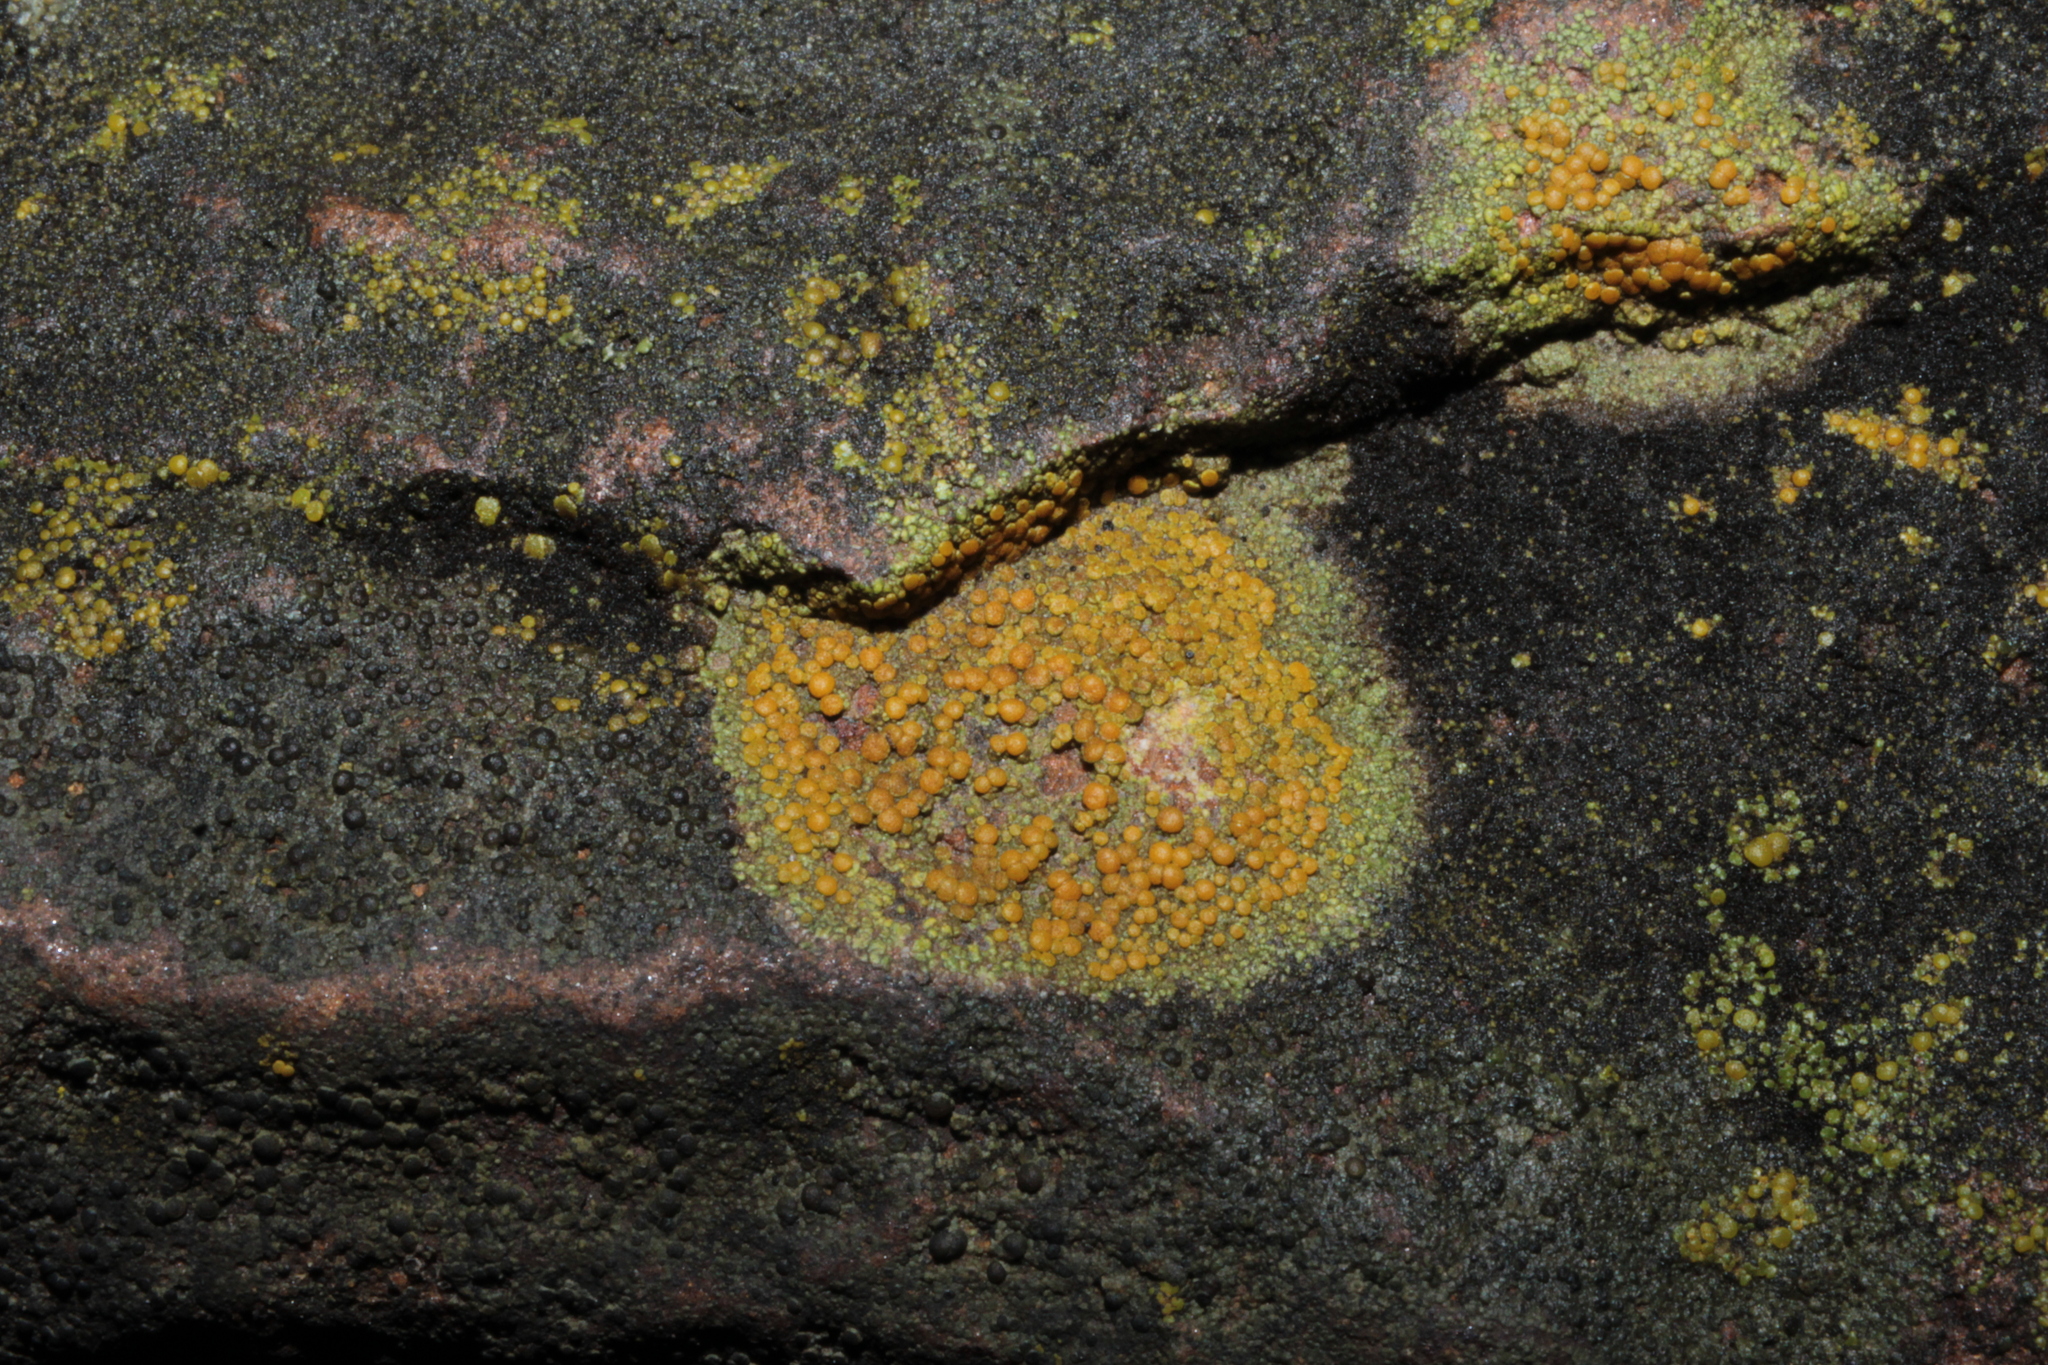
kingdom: Fungi
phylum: Ascomycota
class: Lecanoromycetes
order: Teloschistales
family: Teloschistaceae
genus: Gyalolechia
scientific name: Gyalolechia flavovirescens
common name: Sulphur firedot
